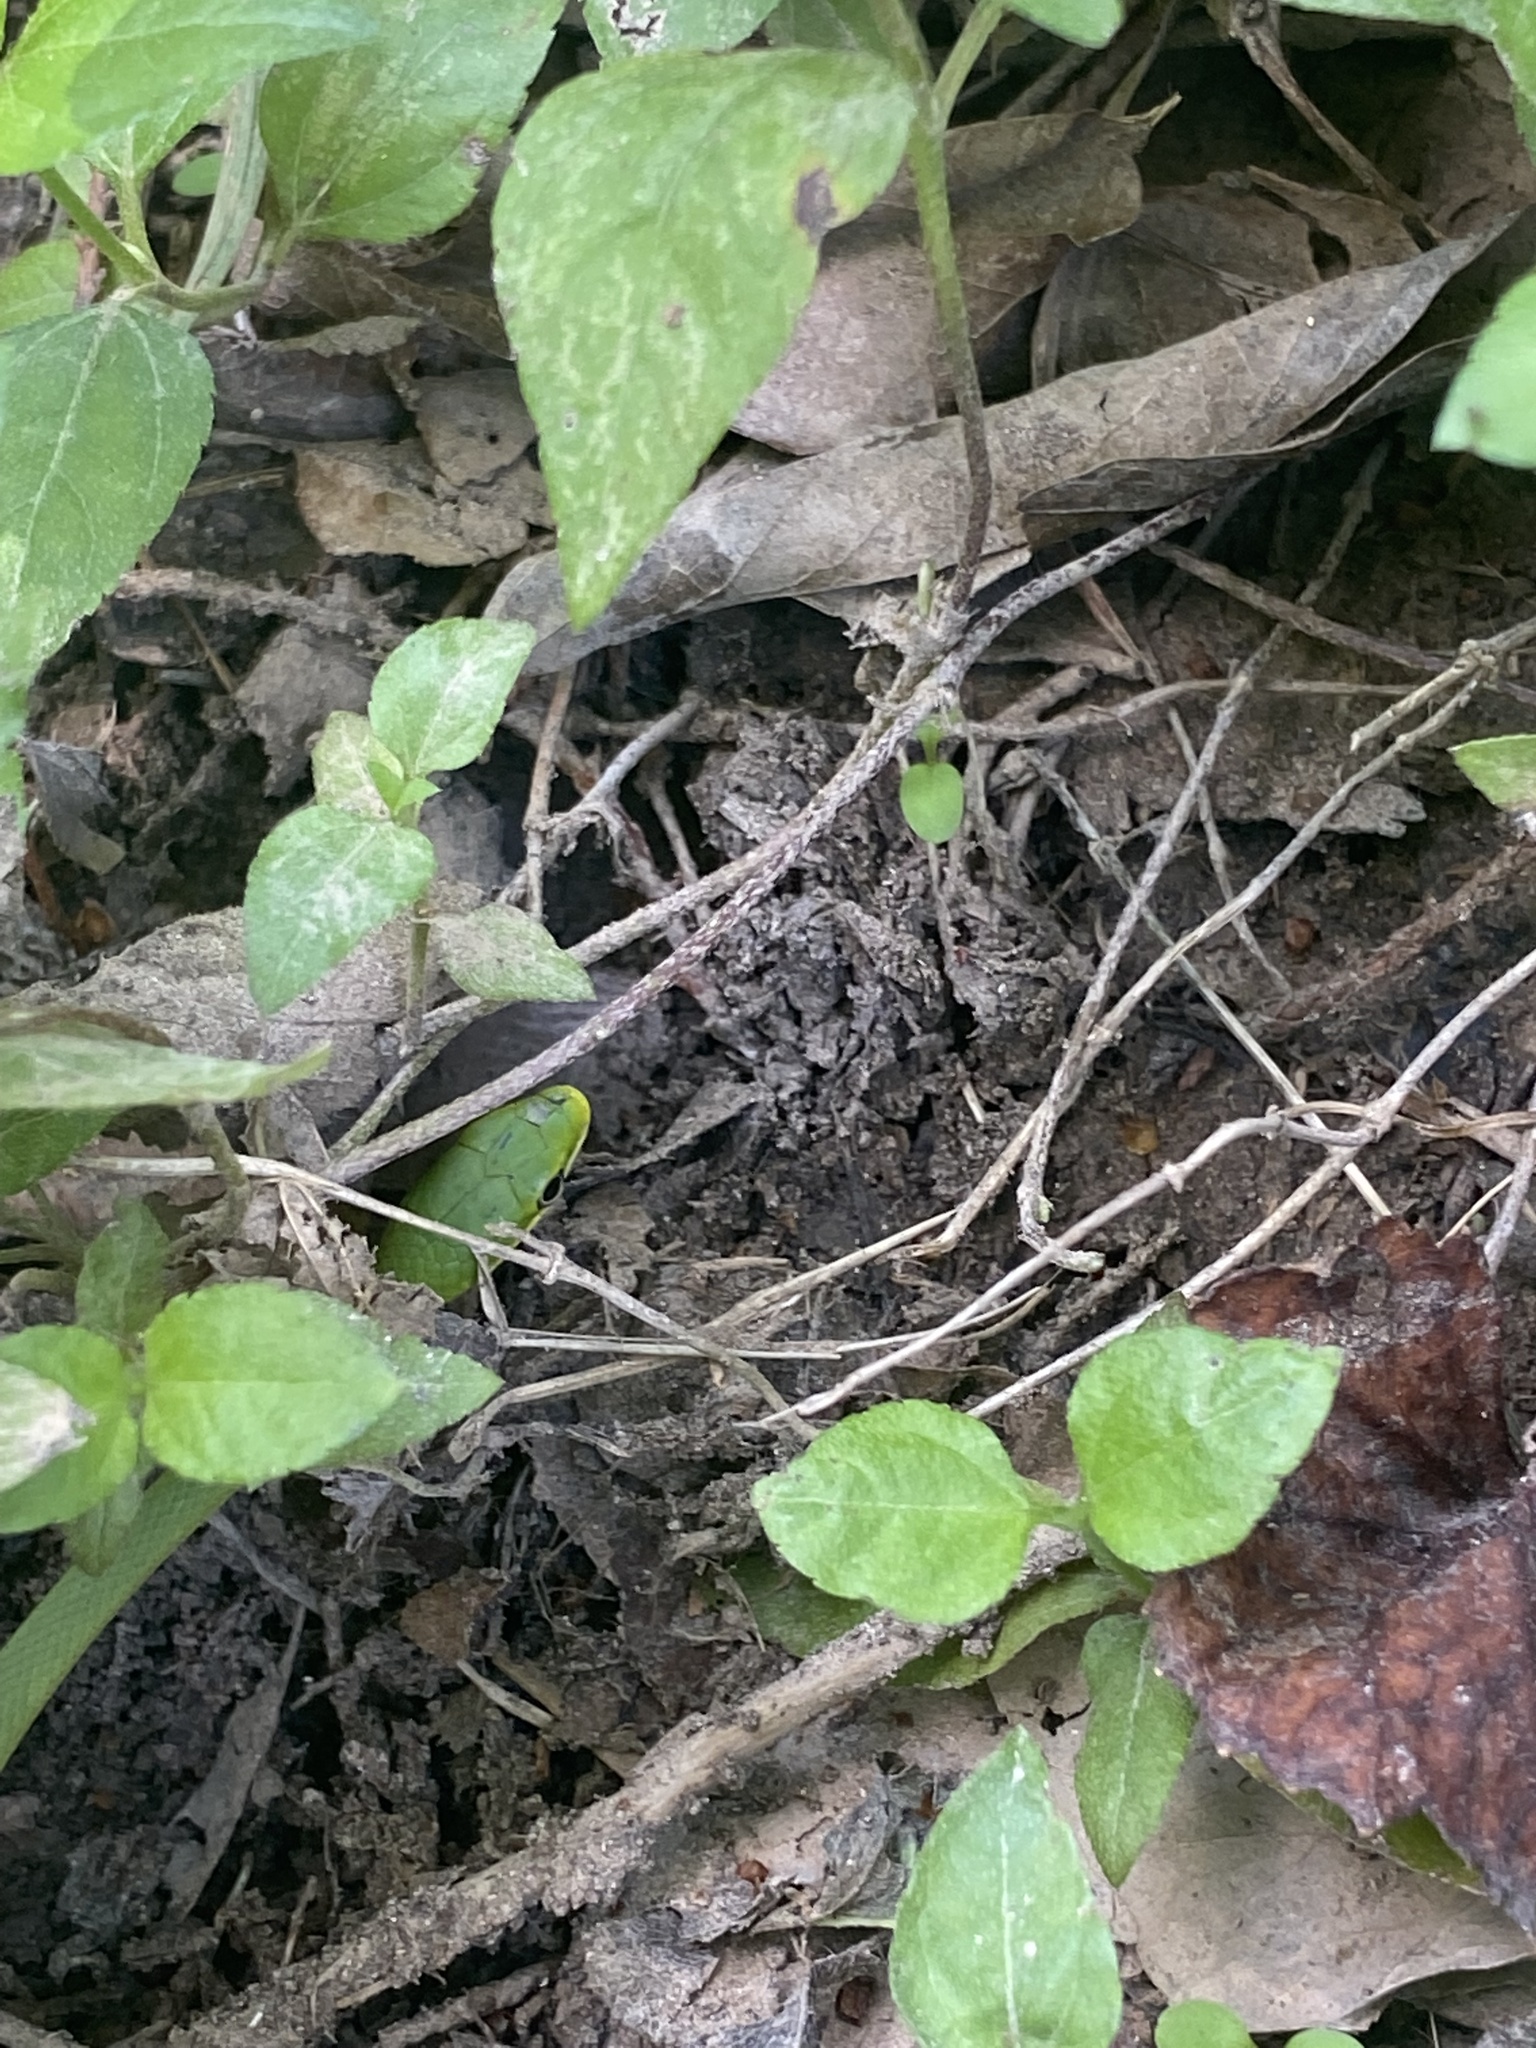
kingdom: Animalia
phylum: Chordata
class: Squamata
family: Colubridae
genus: Opheodrys
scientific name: Opheodrys aestivus
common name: Rough greensnake
